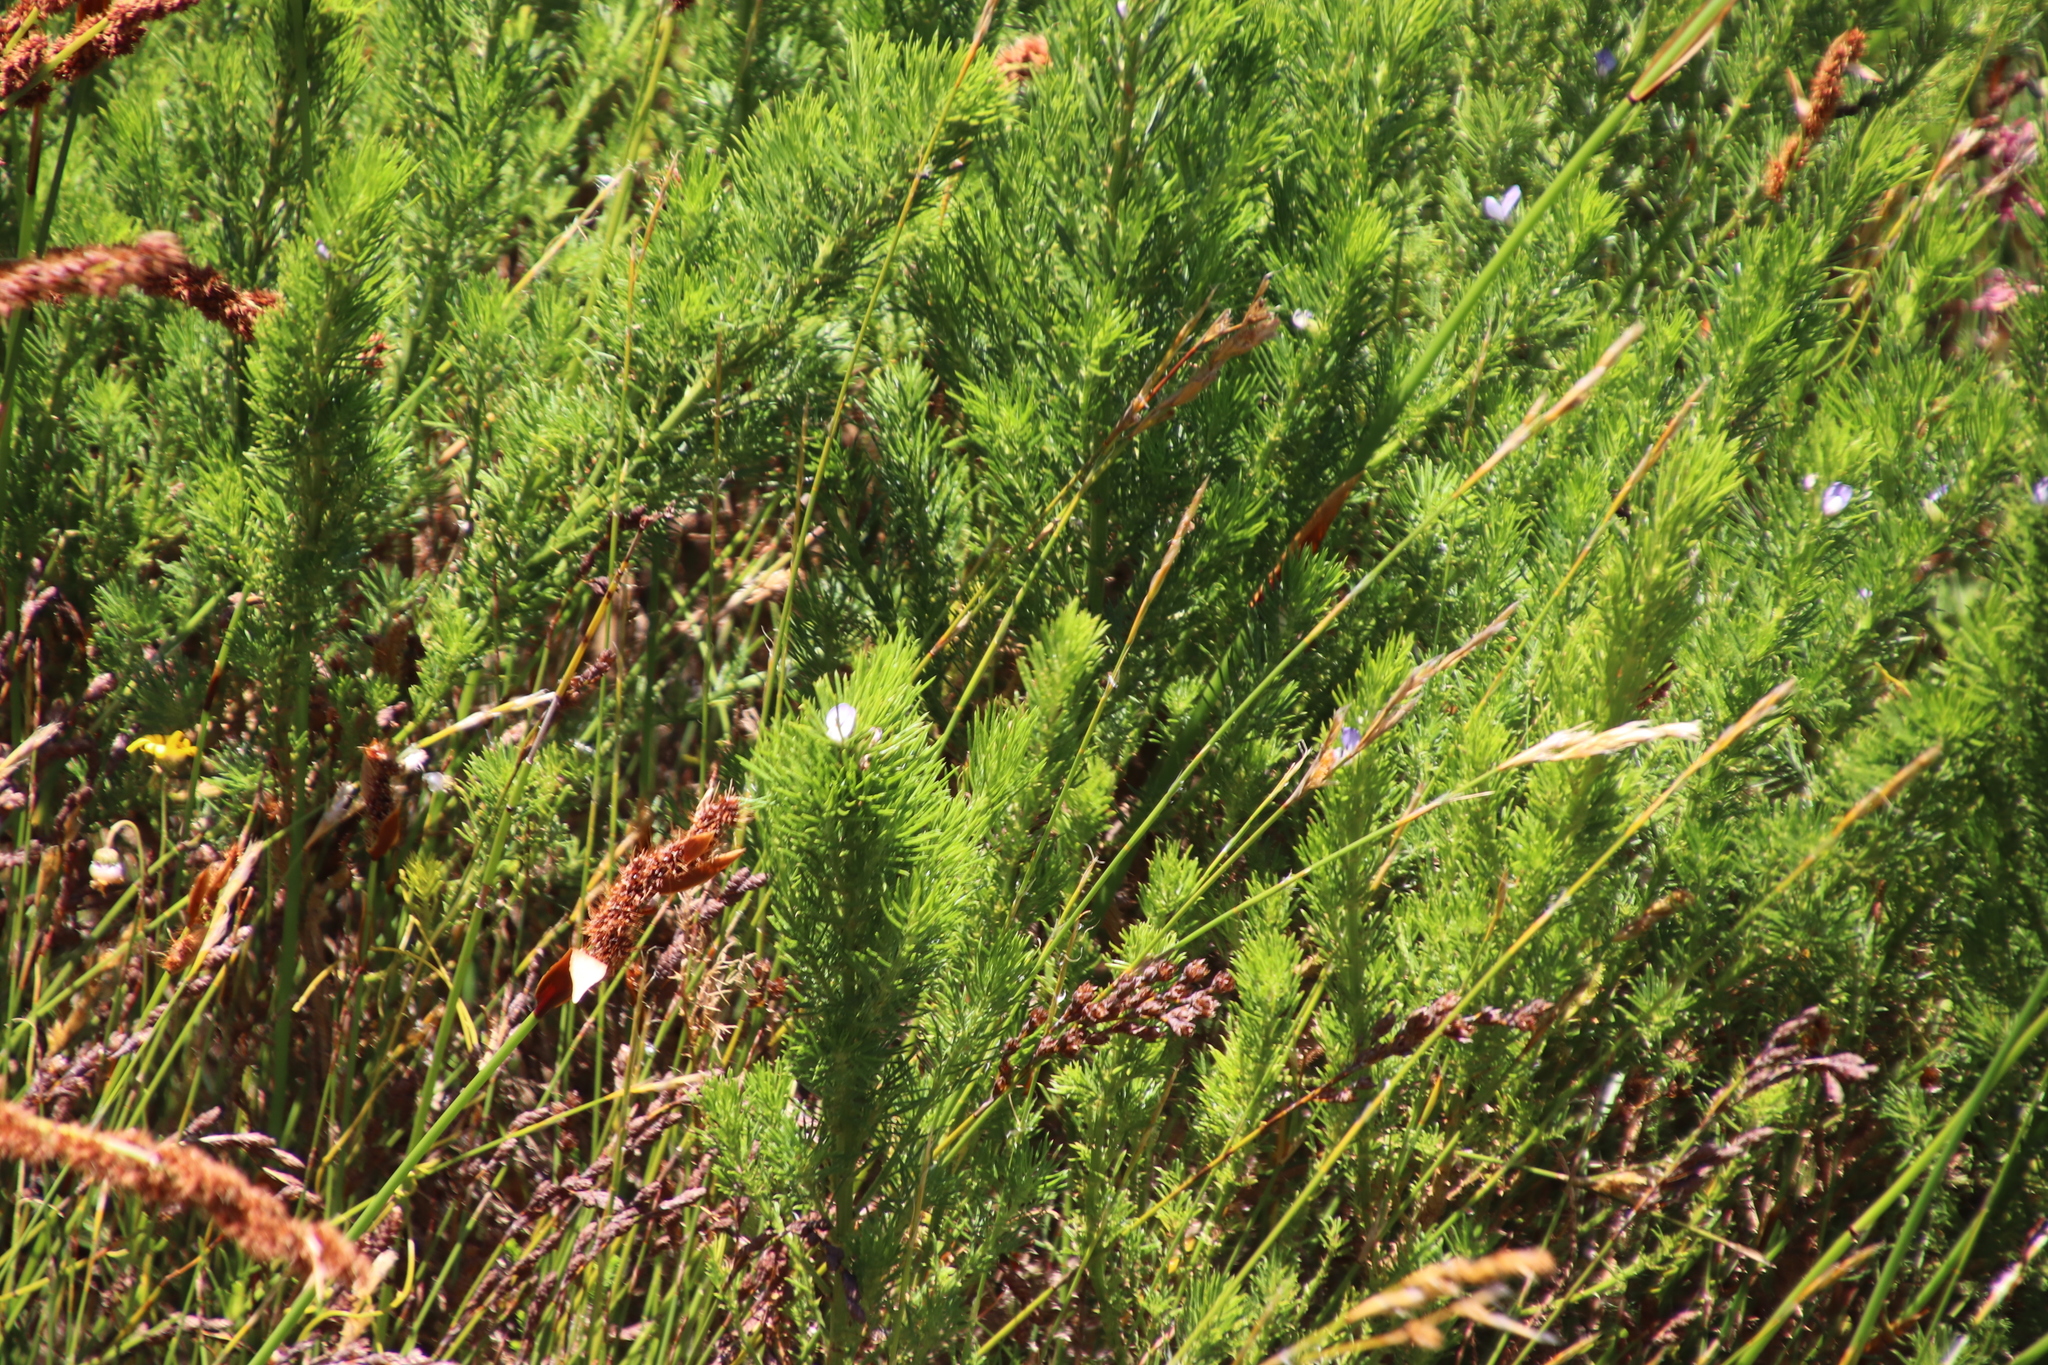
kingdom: Plantae
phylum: Tracheophyta
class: Liliopsida
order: Poales
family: Restionaceae
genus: Elegia
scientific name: Elegia cuspidata
